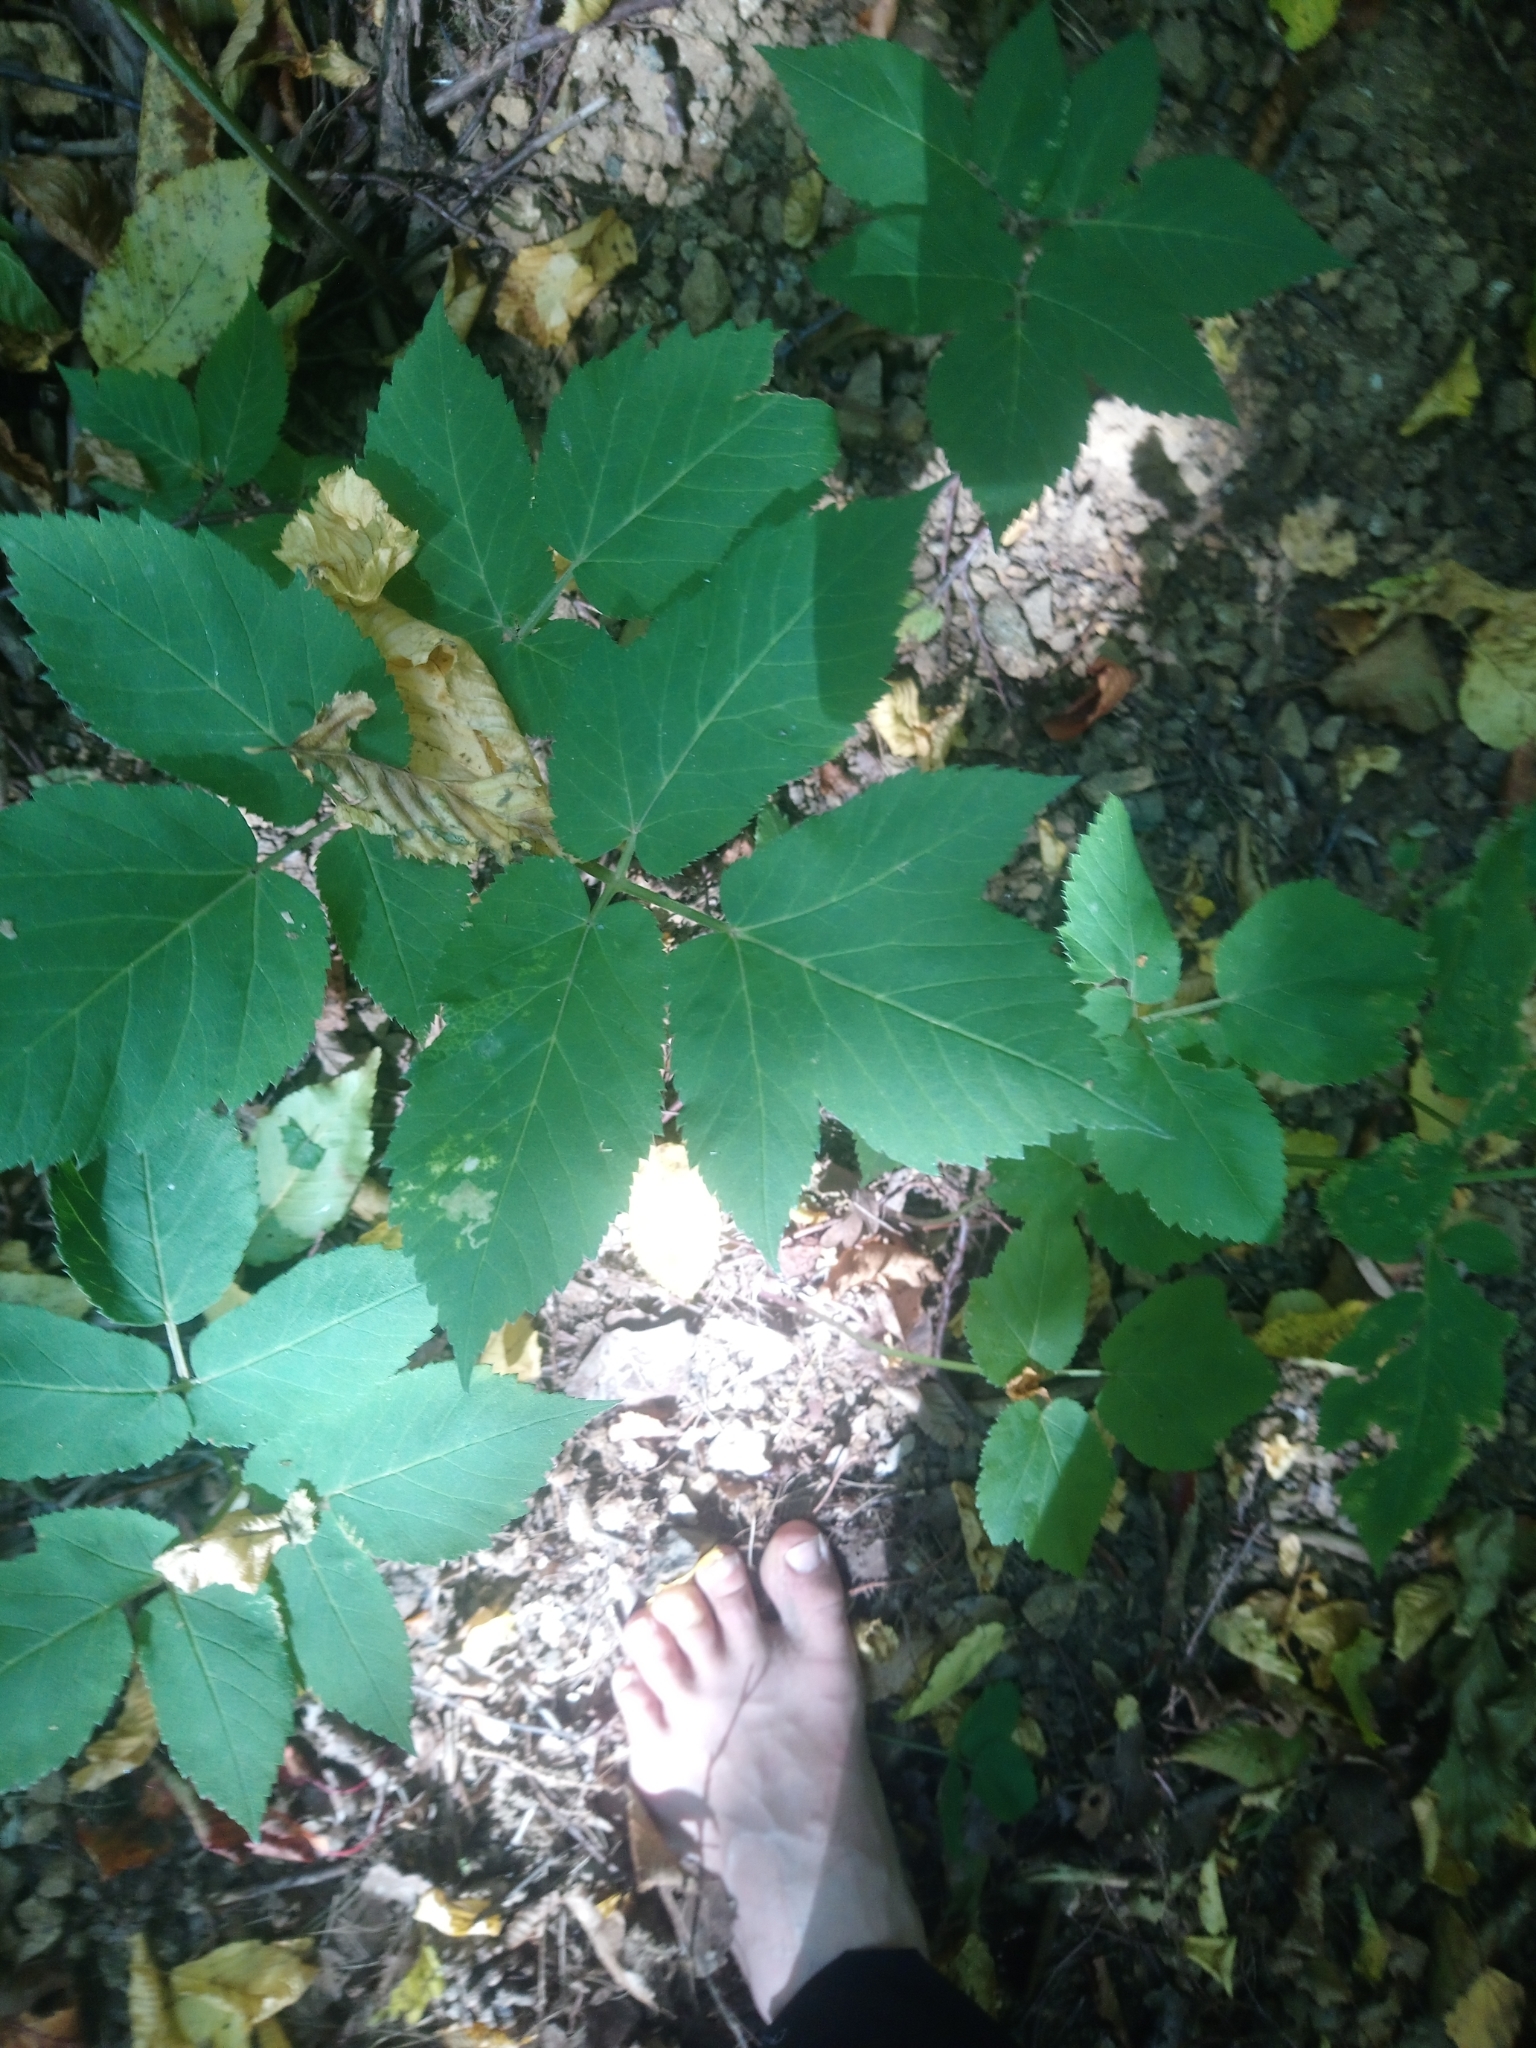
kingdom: Plantae
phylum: Tracheophyta
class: Magnoliopsida
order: Apiales
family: Apiaceae
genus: Aegopodium
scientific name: Aegopodium podagraria
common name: Ground-elder
